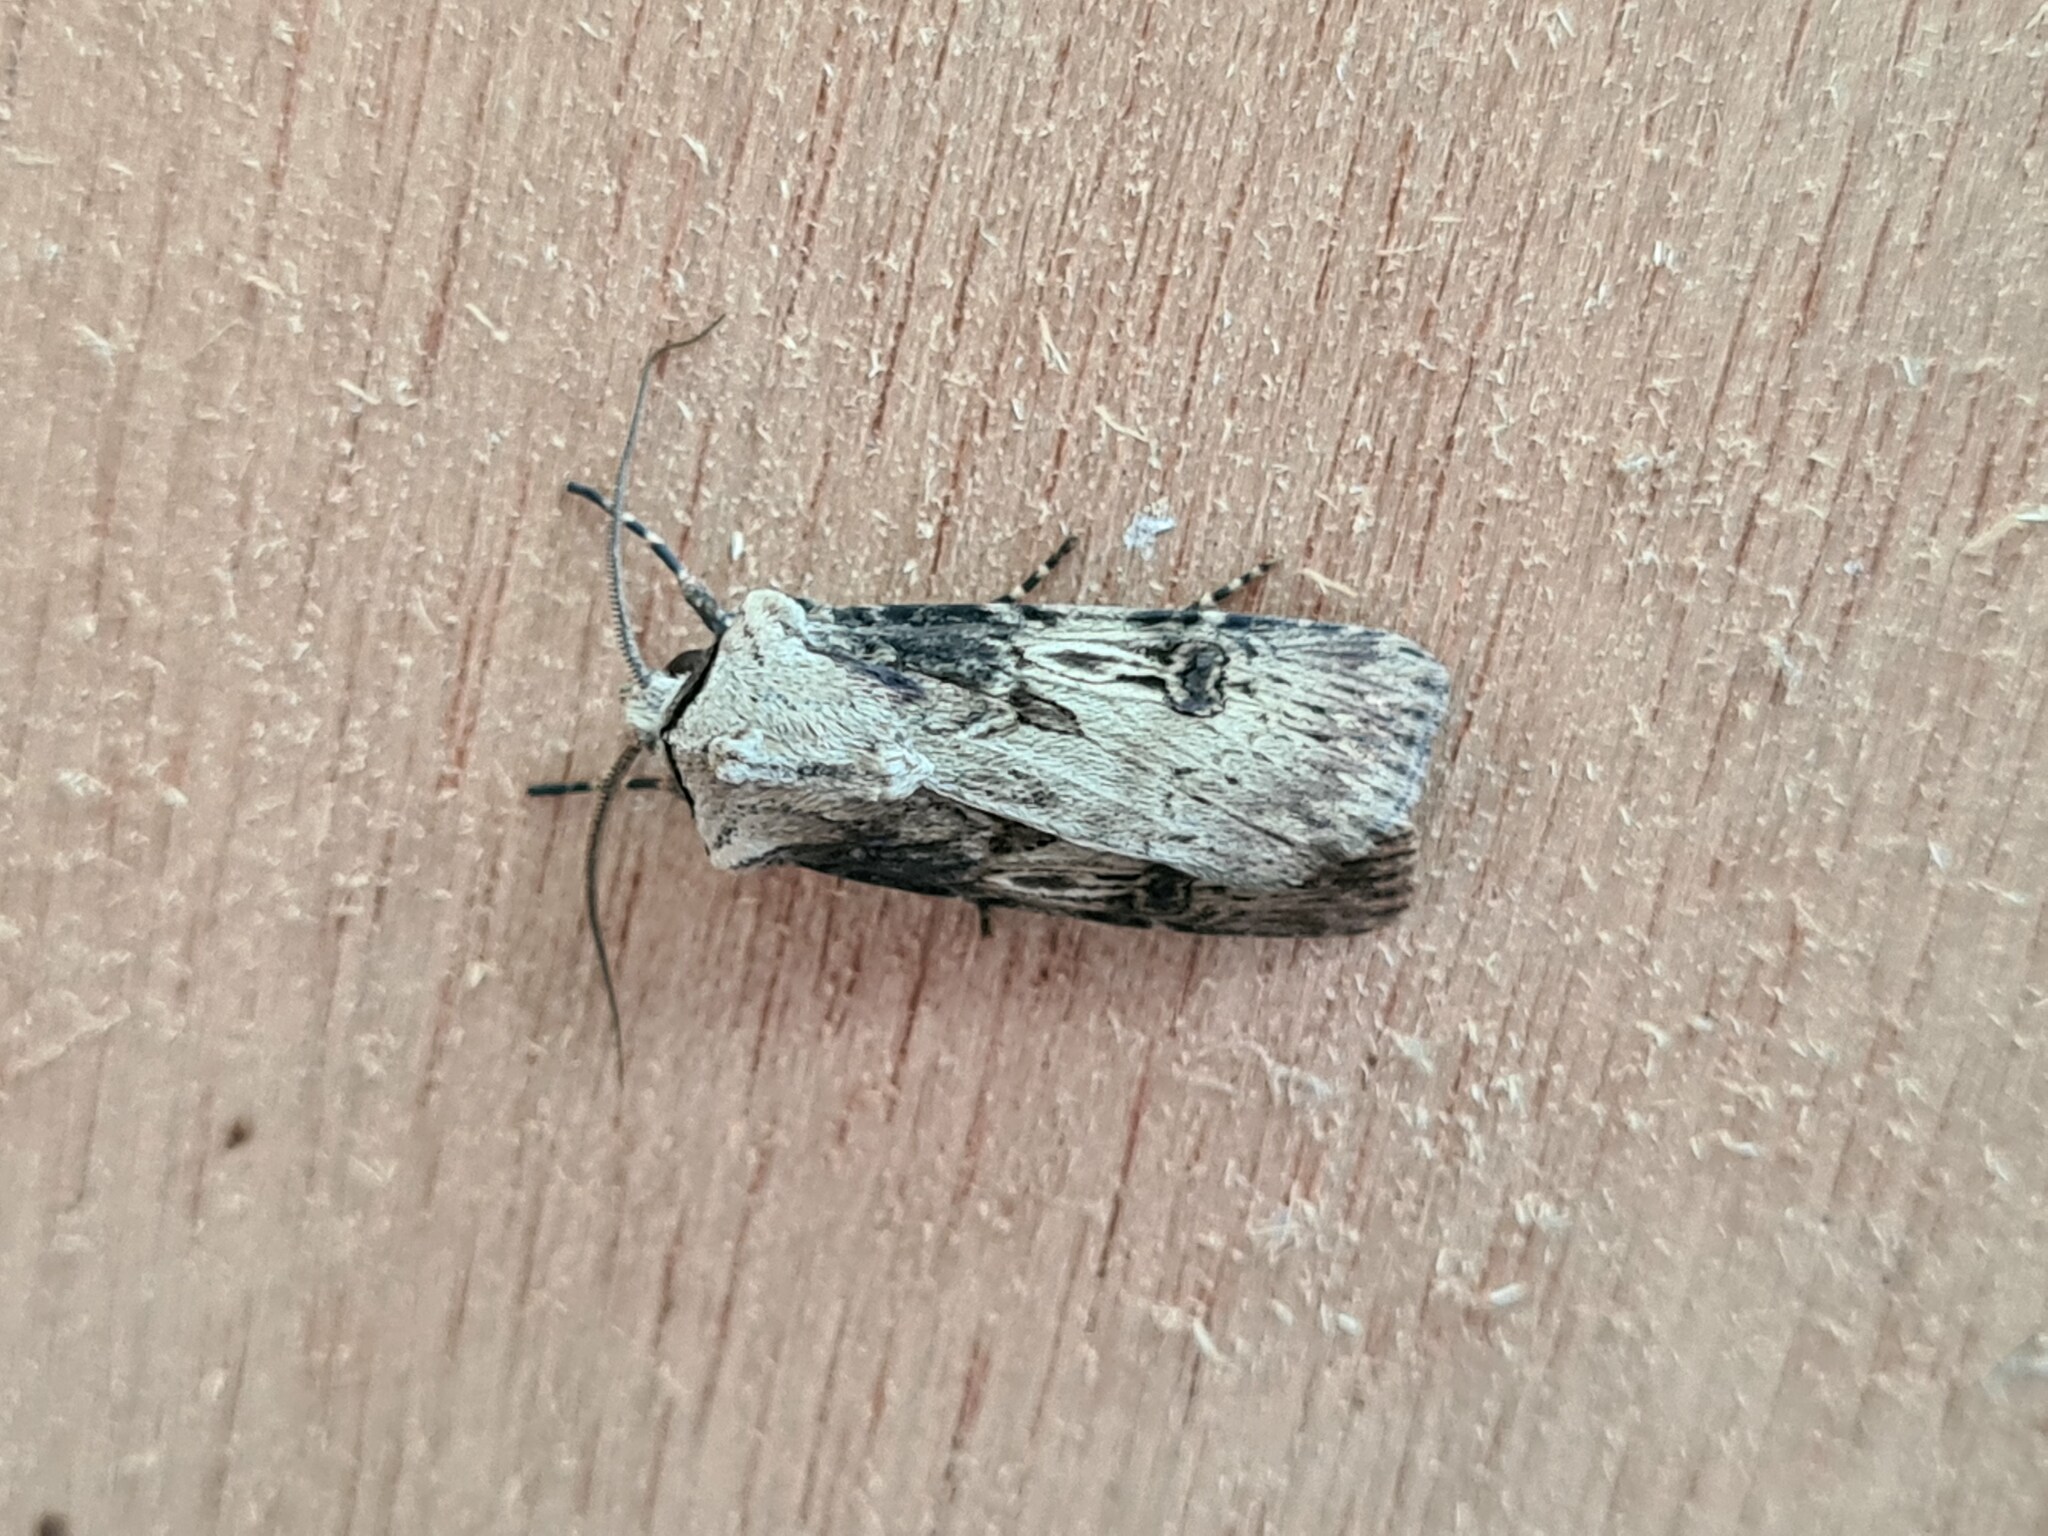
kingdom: Animalia
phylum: Arthropoda
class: Insecta
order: Lepidoptera
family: Noctuidae
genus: Agrotis
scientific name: Agrotis puta
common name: Shuttle-shaped dart
